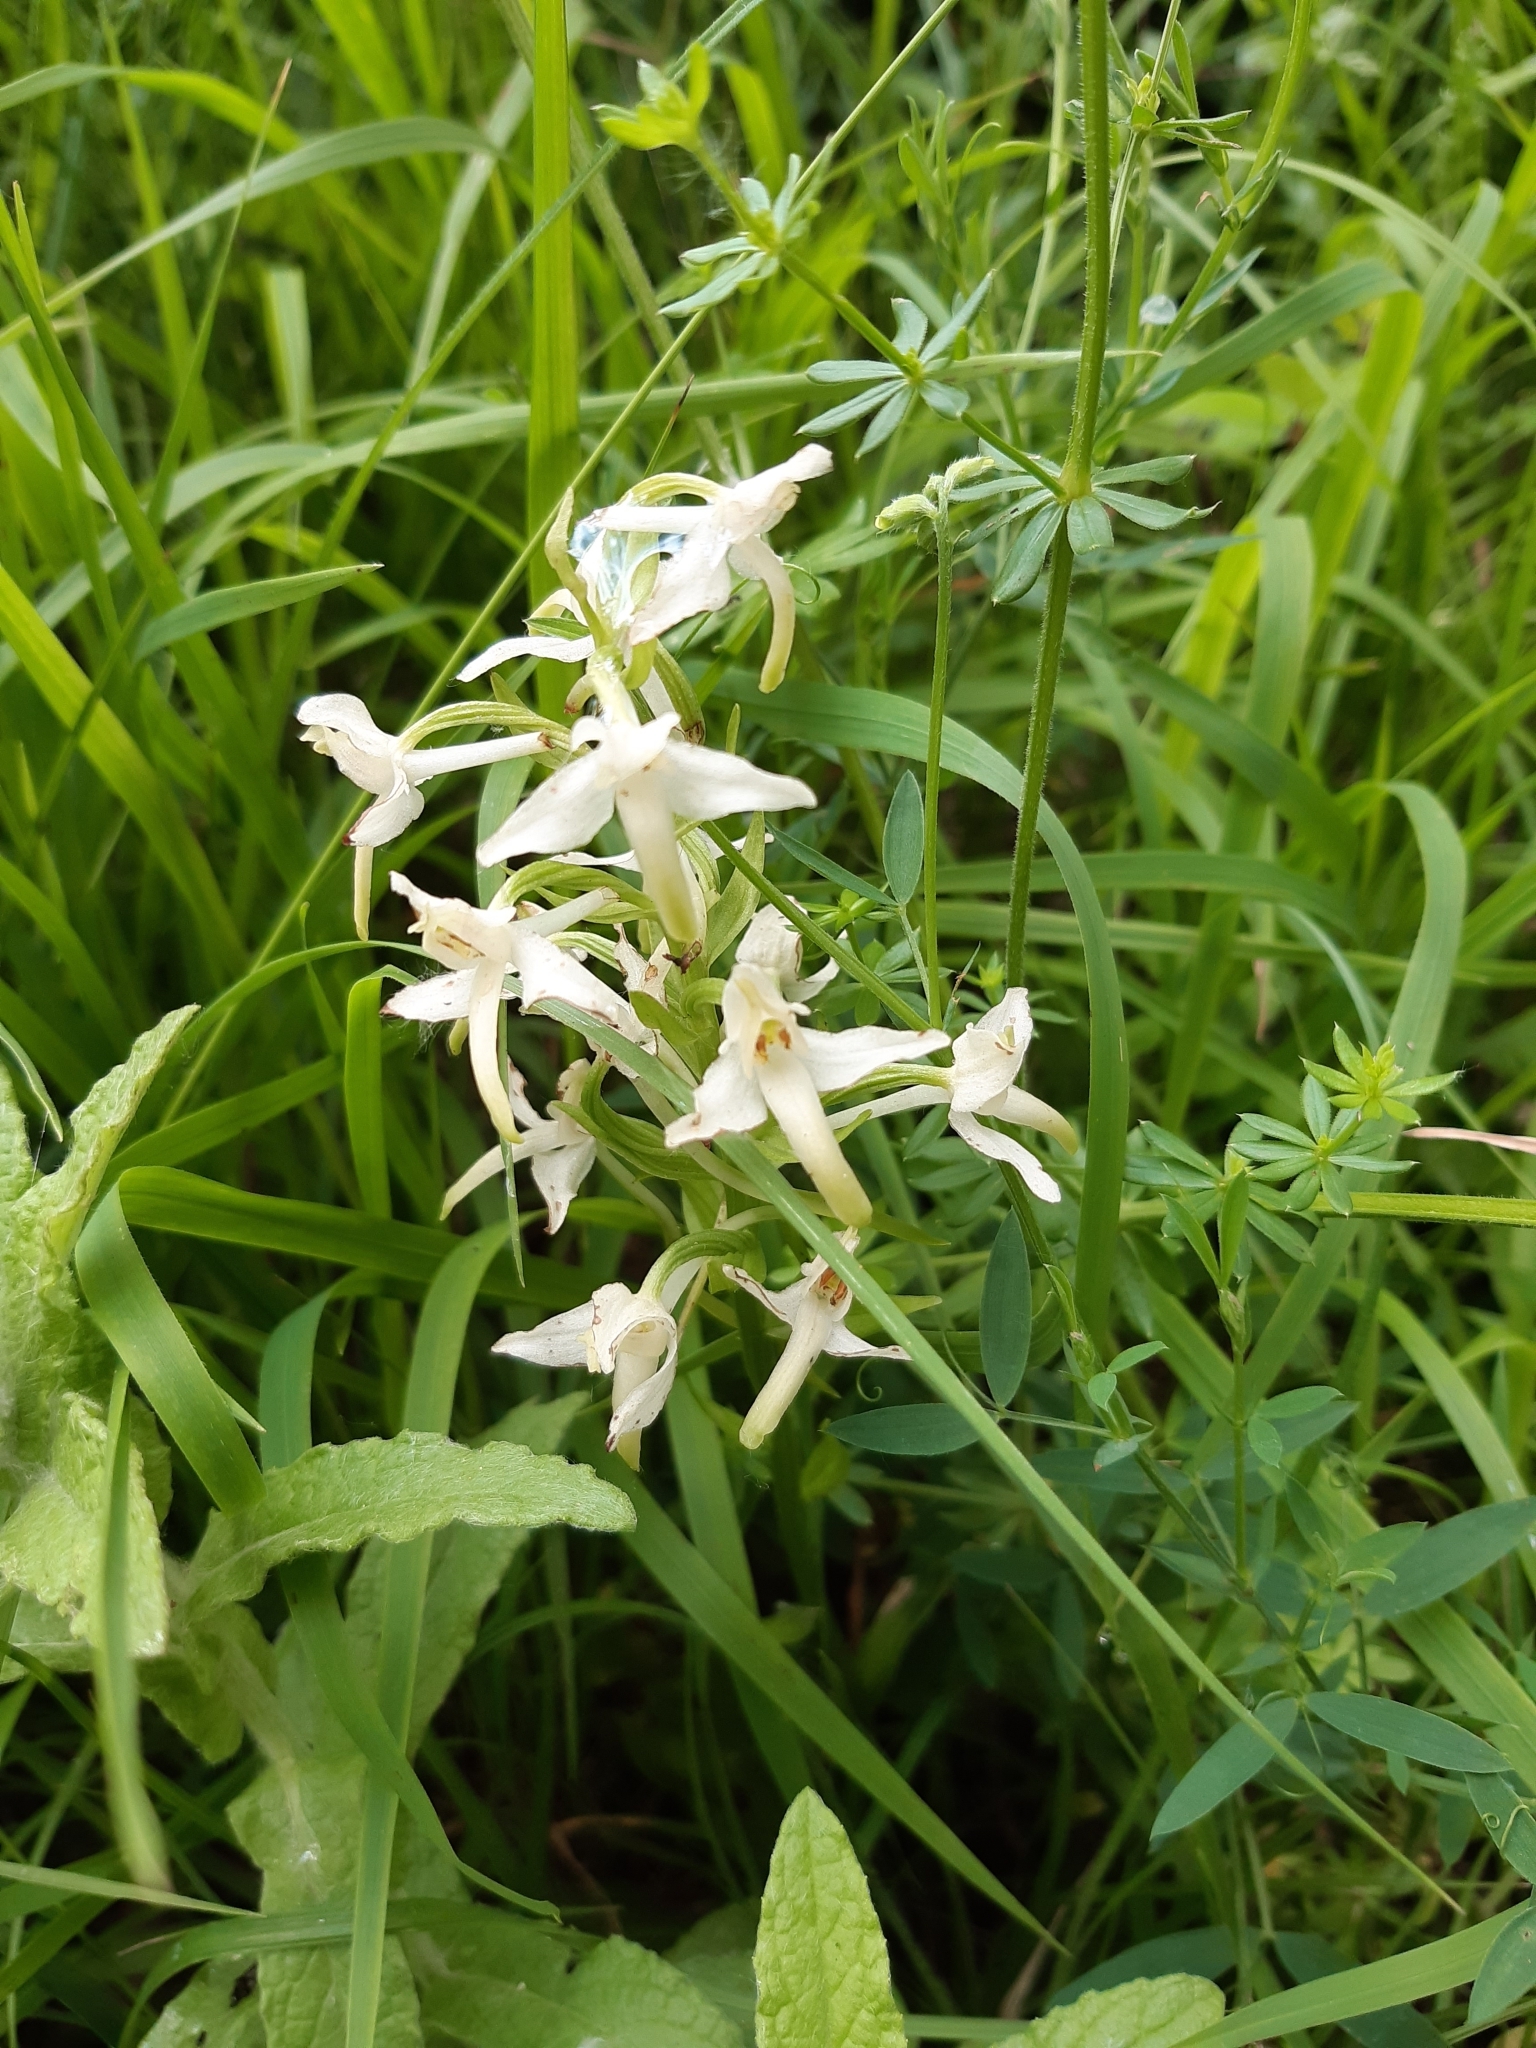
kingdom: Plantae
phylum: Tracheophyta
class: Liliopsida
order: Asparagales
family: Orchidaceae
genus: Platanthera
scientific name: Platanthera bifolia
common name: Lesser butterfly-orchid
